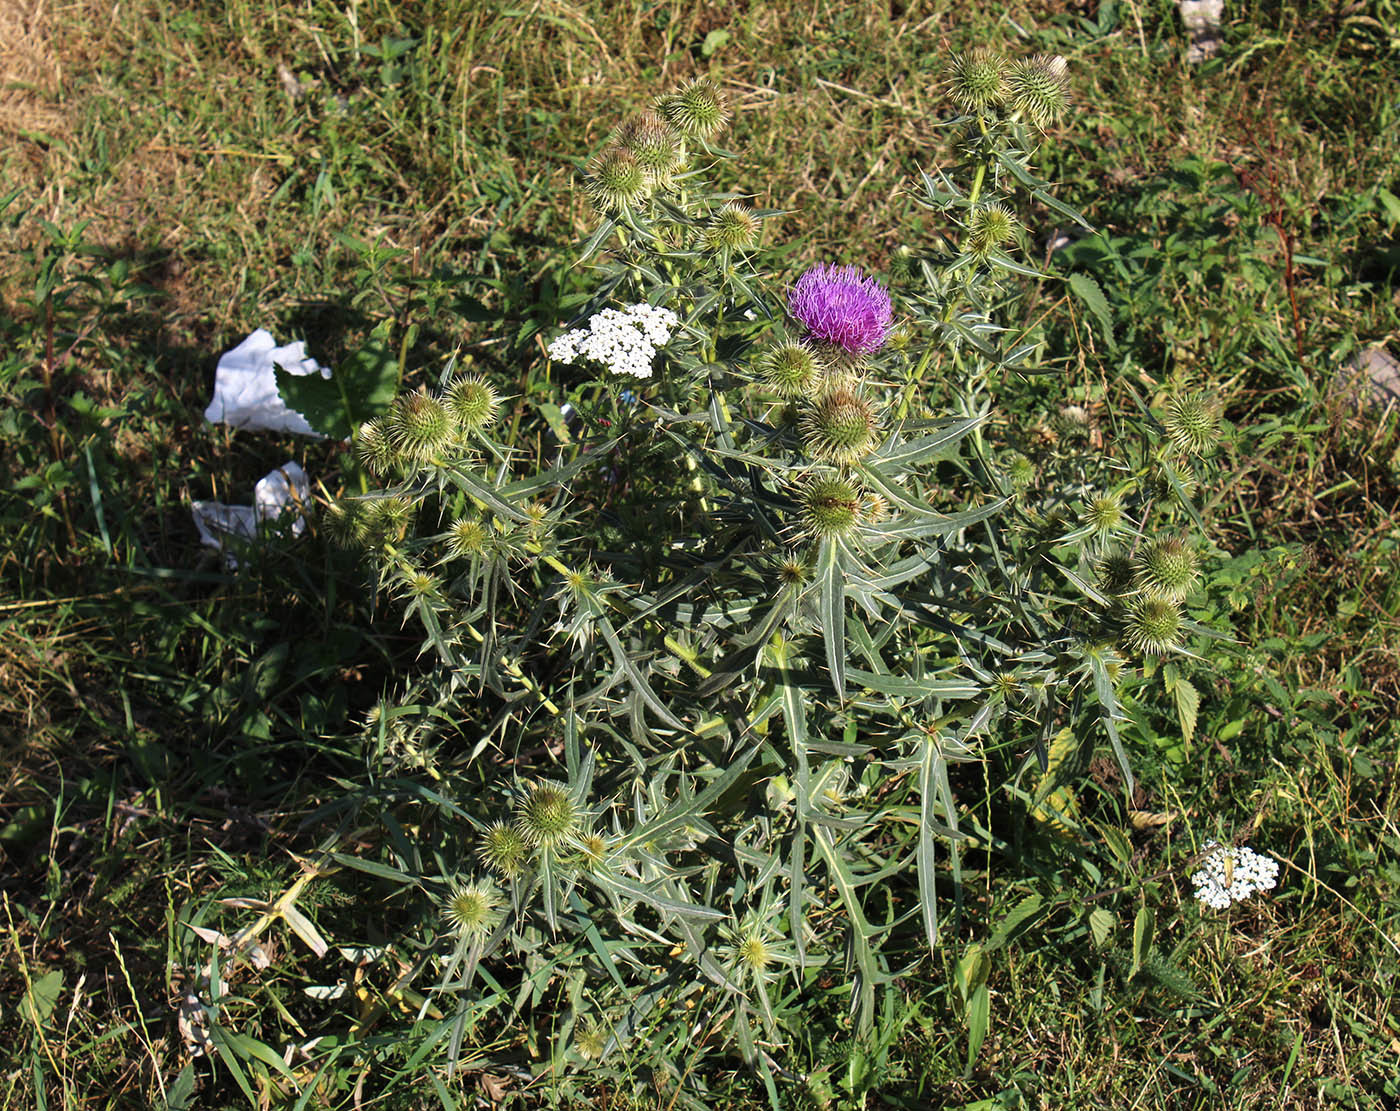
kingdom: Plantae
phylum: Tracheophyta
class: Magnoliopsida
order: Asterales
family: Asteraceae
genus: Lophiolepis
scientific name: Lophiolepis ciliata
